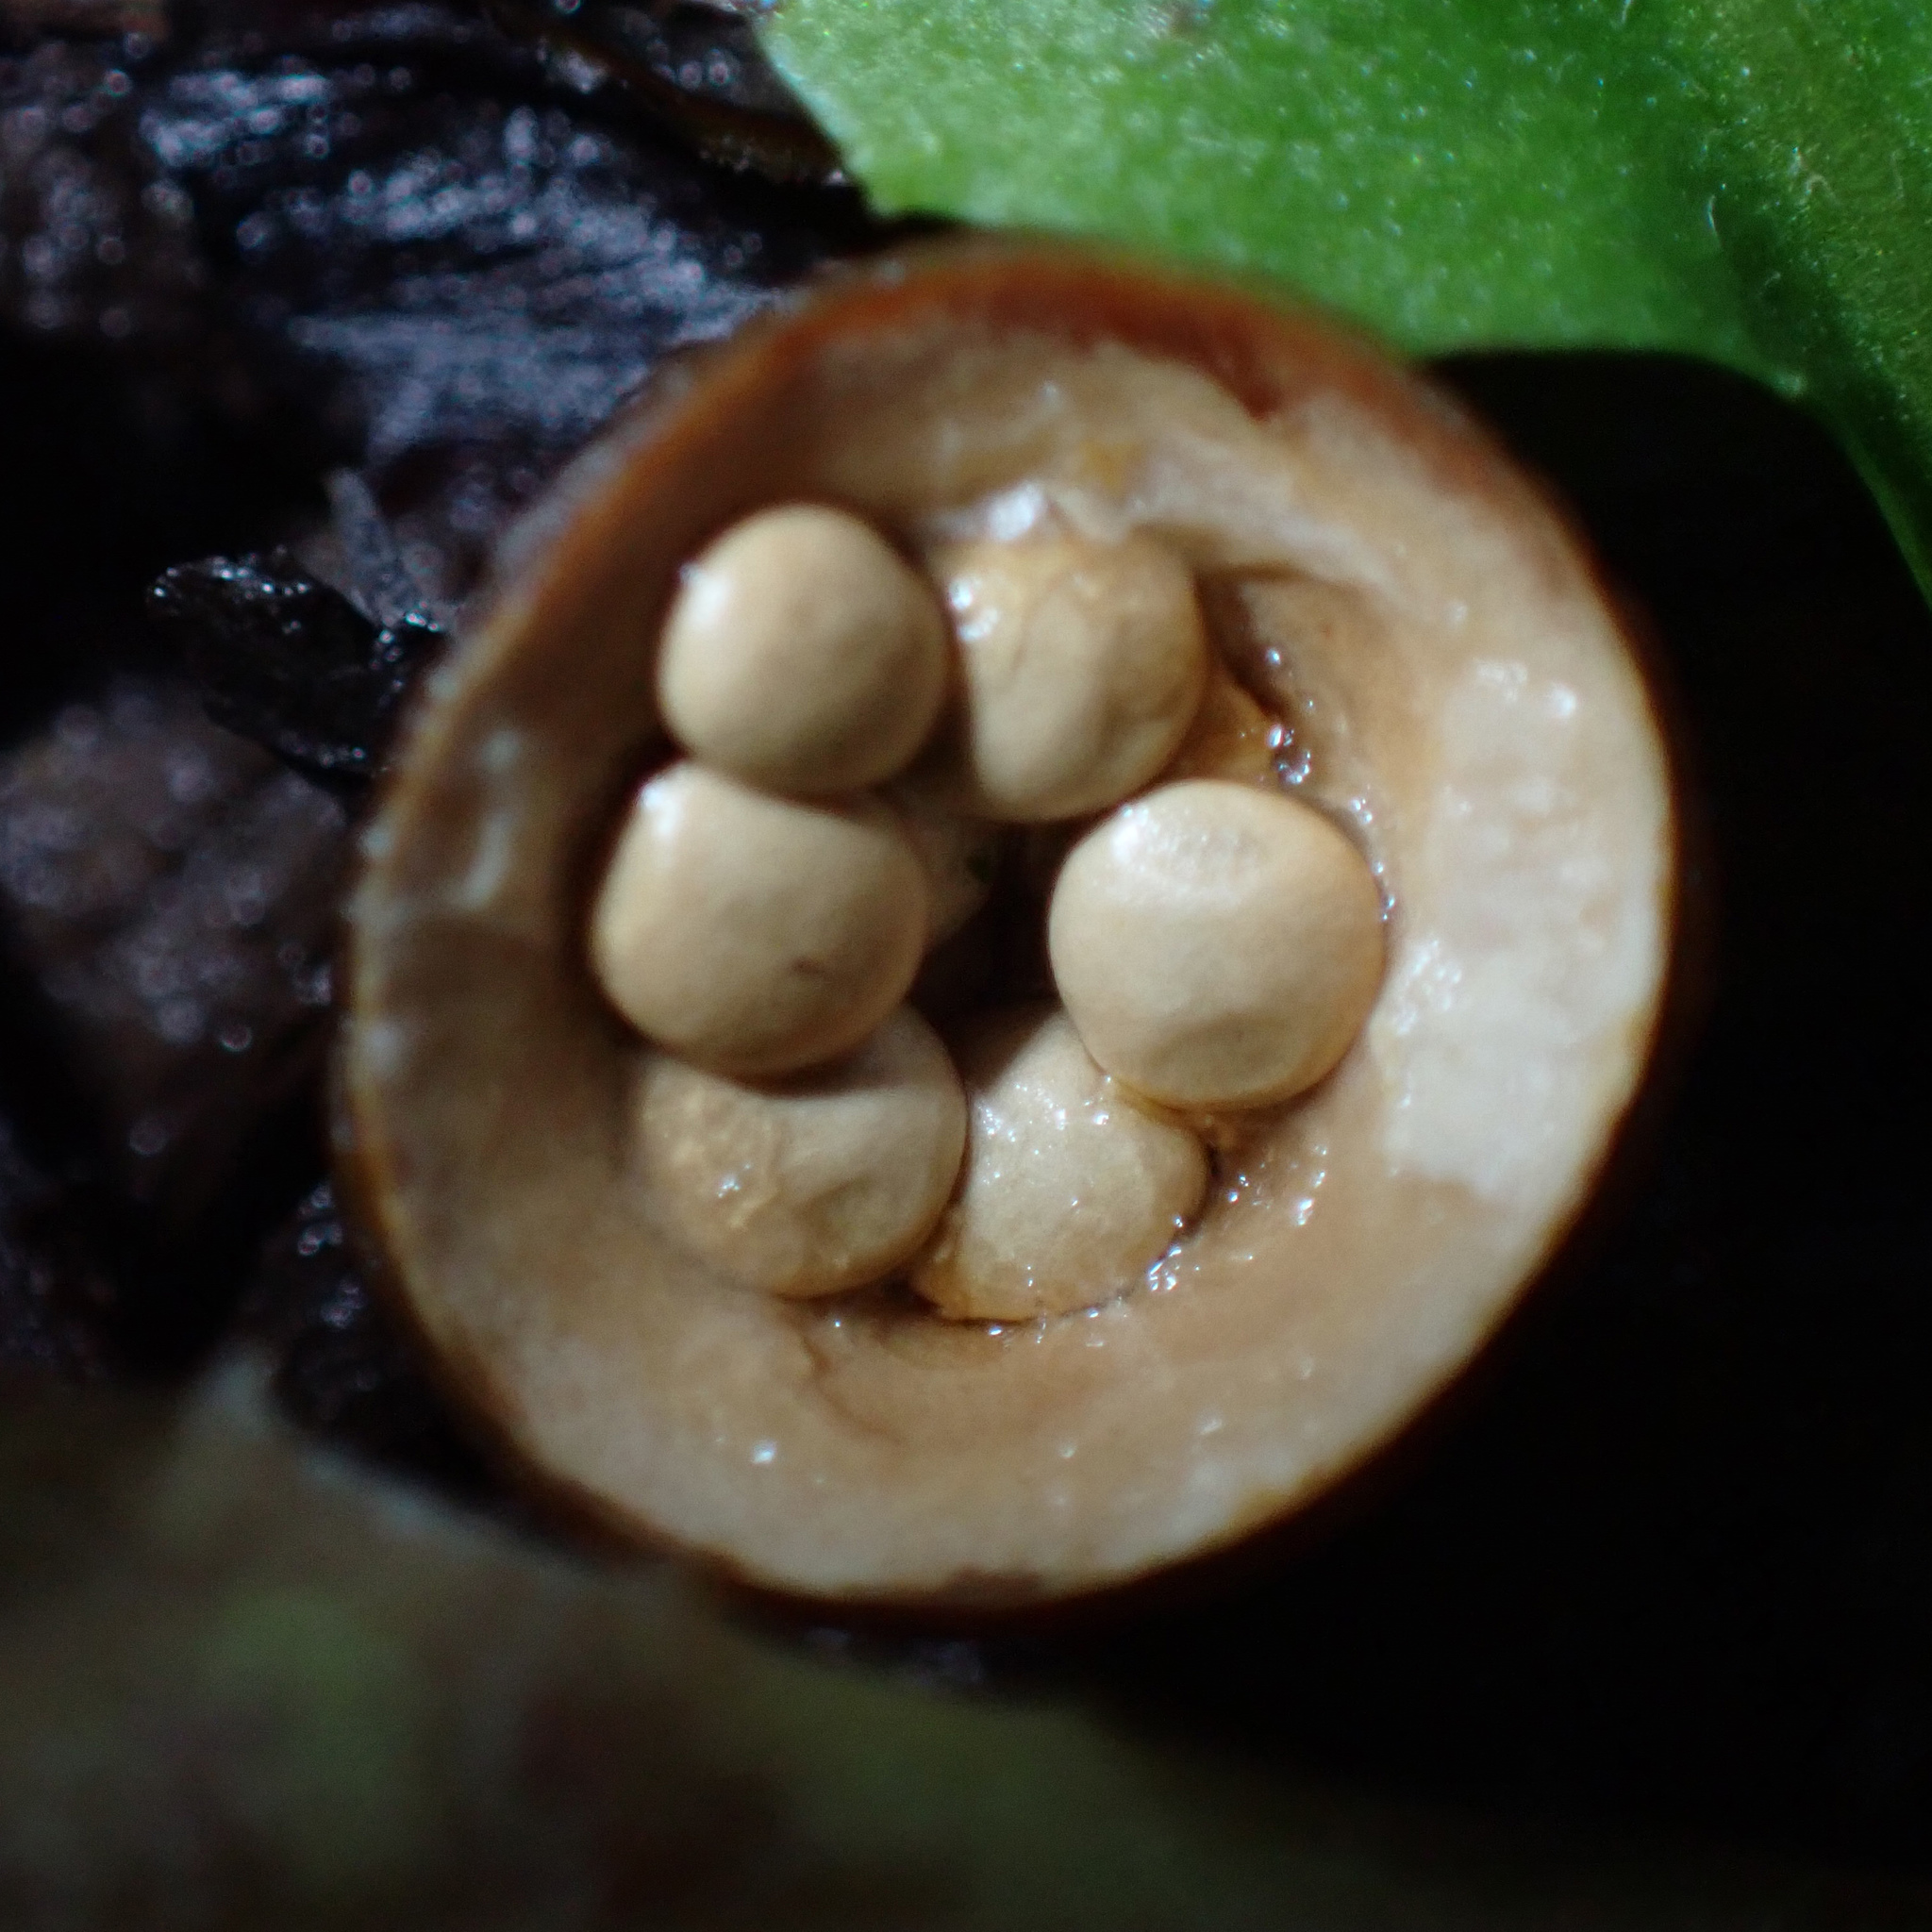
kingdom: Fungi
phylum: Basidiomycota
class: Agaricomycetes
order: Agaricales
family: Nidulariaceae
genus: Crucibulum
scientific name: Crucibulum laeve
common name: Common bird's nest
